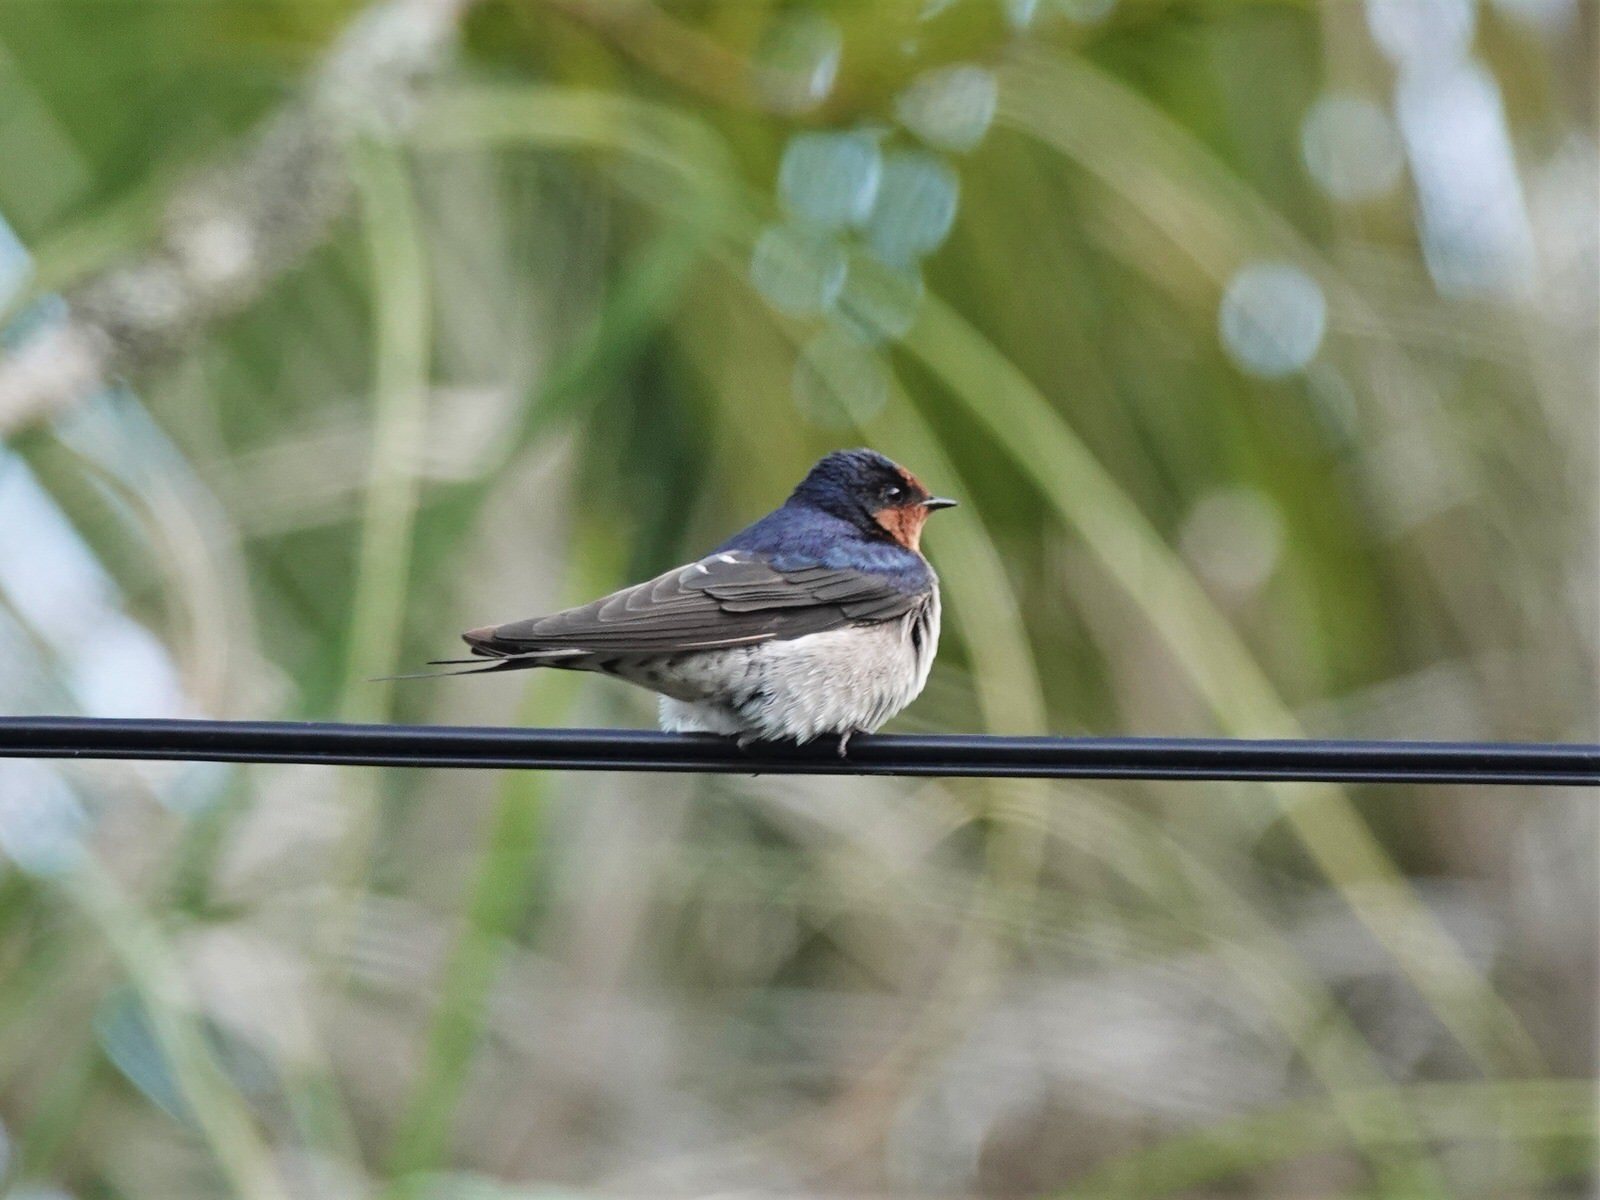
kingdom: Animalia
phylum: Chordata
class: Aves
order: Passeriformes
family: Hirundinidae
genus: Hirundo
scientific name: Hirundo neoxena
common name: Welcome swallow
